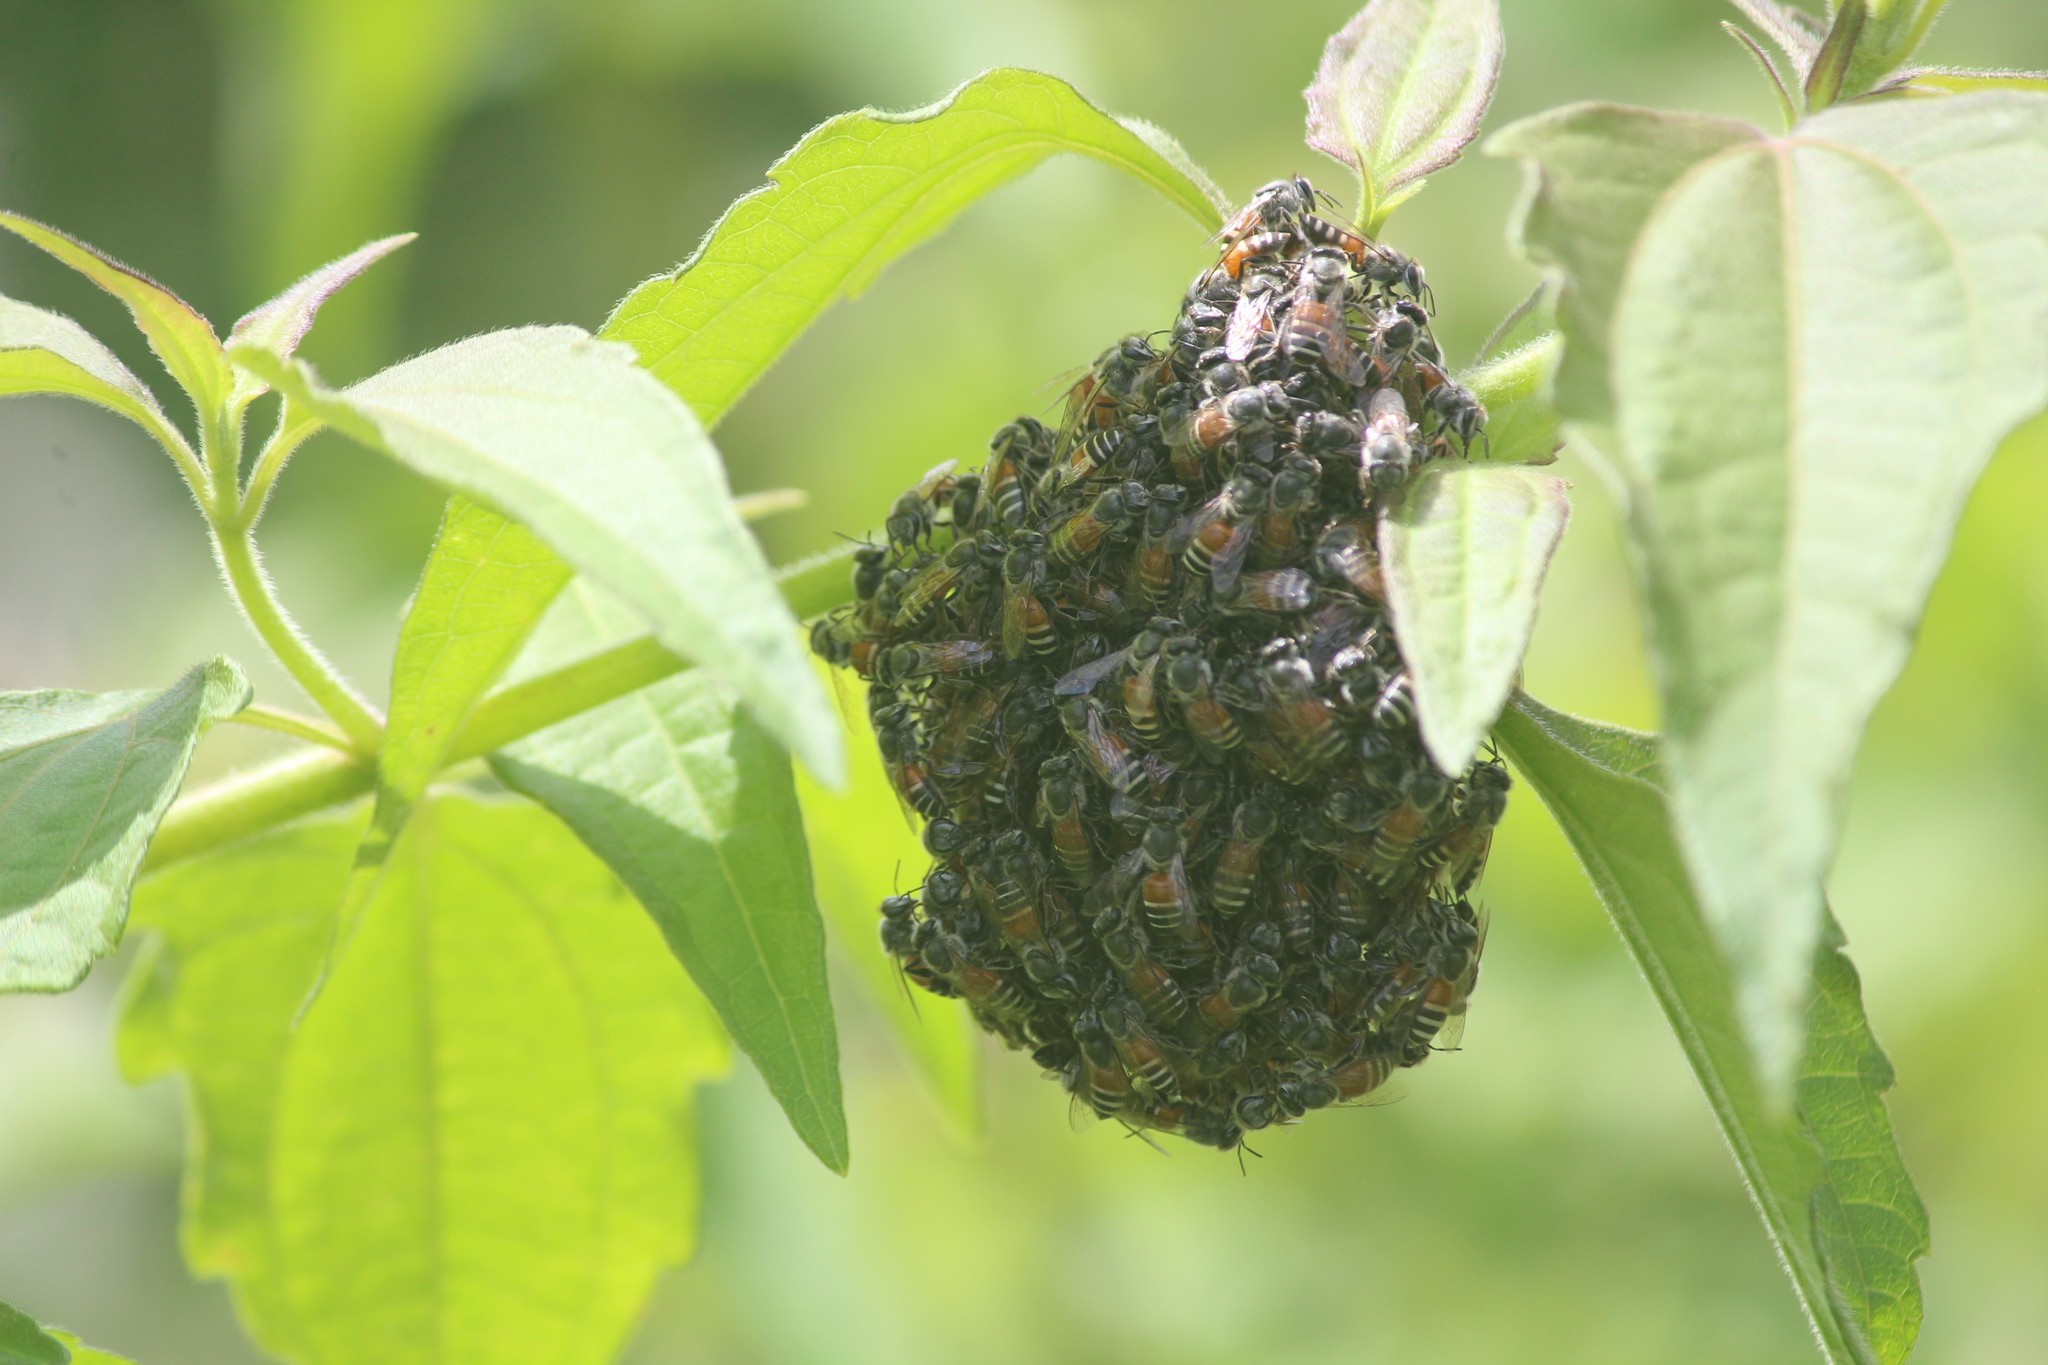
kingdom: Animalia
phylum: Arthropoda
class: Insecta
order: Hymenoptera
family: Apidae
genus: Apis
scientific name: Apis florea
